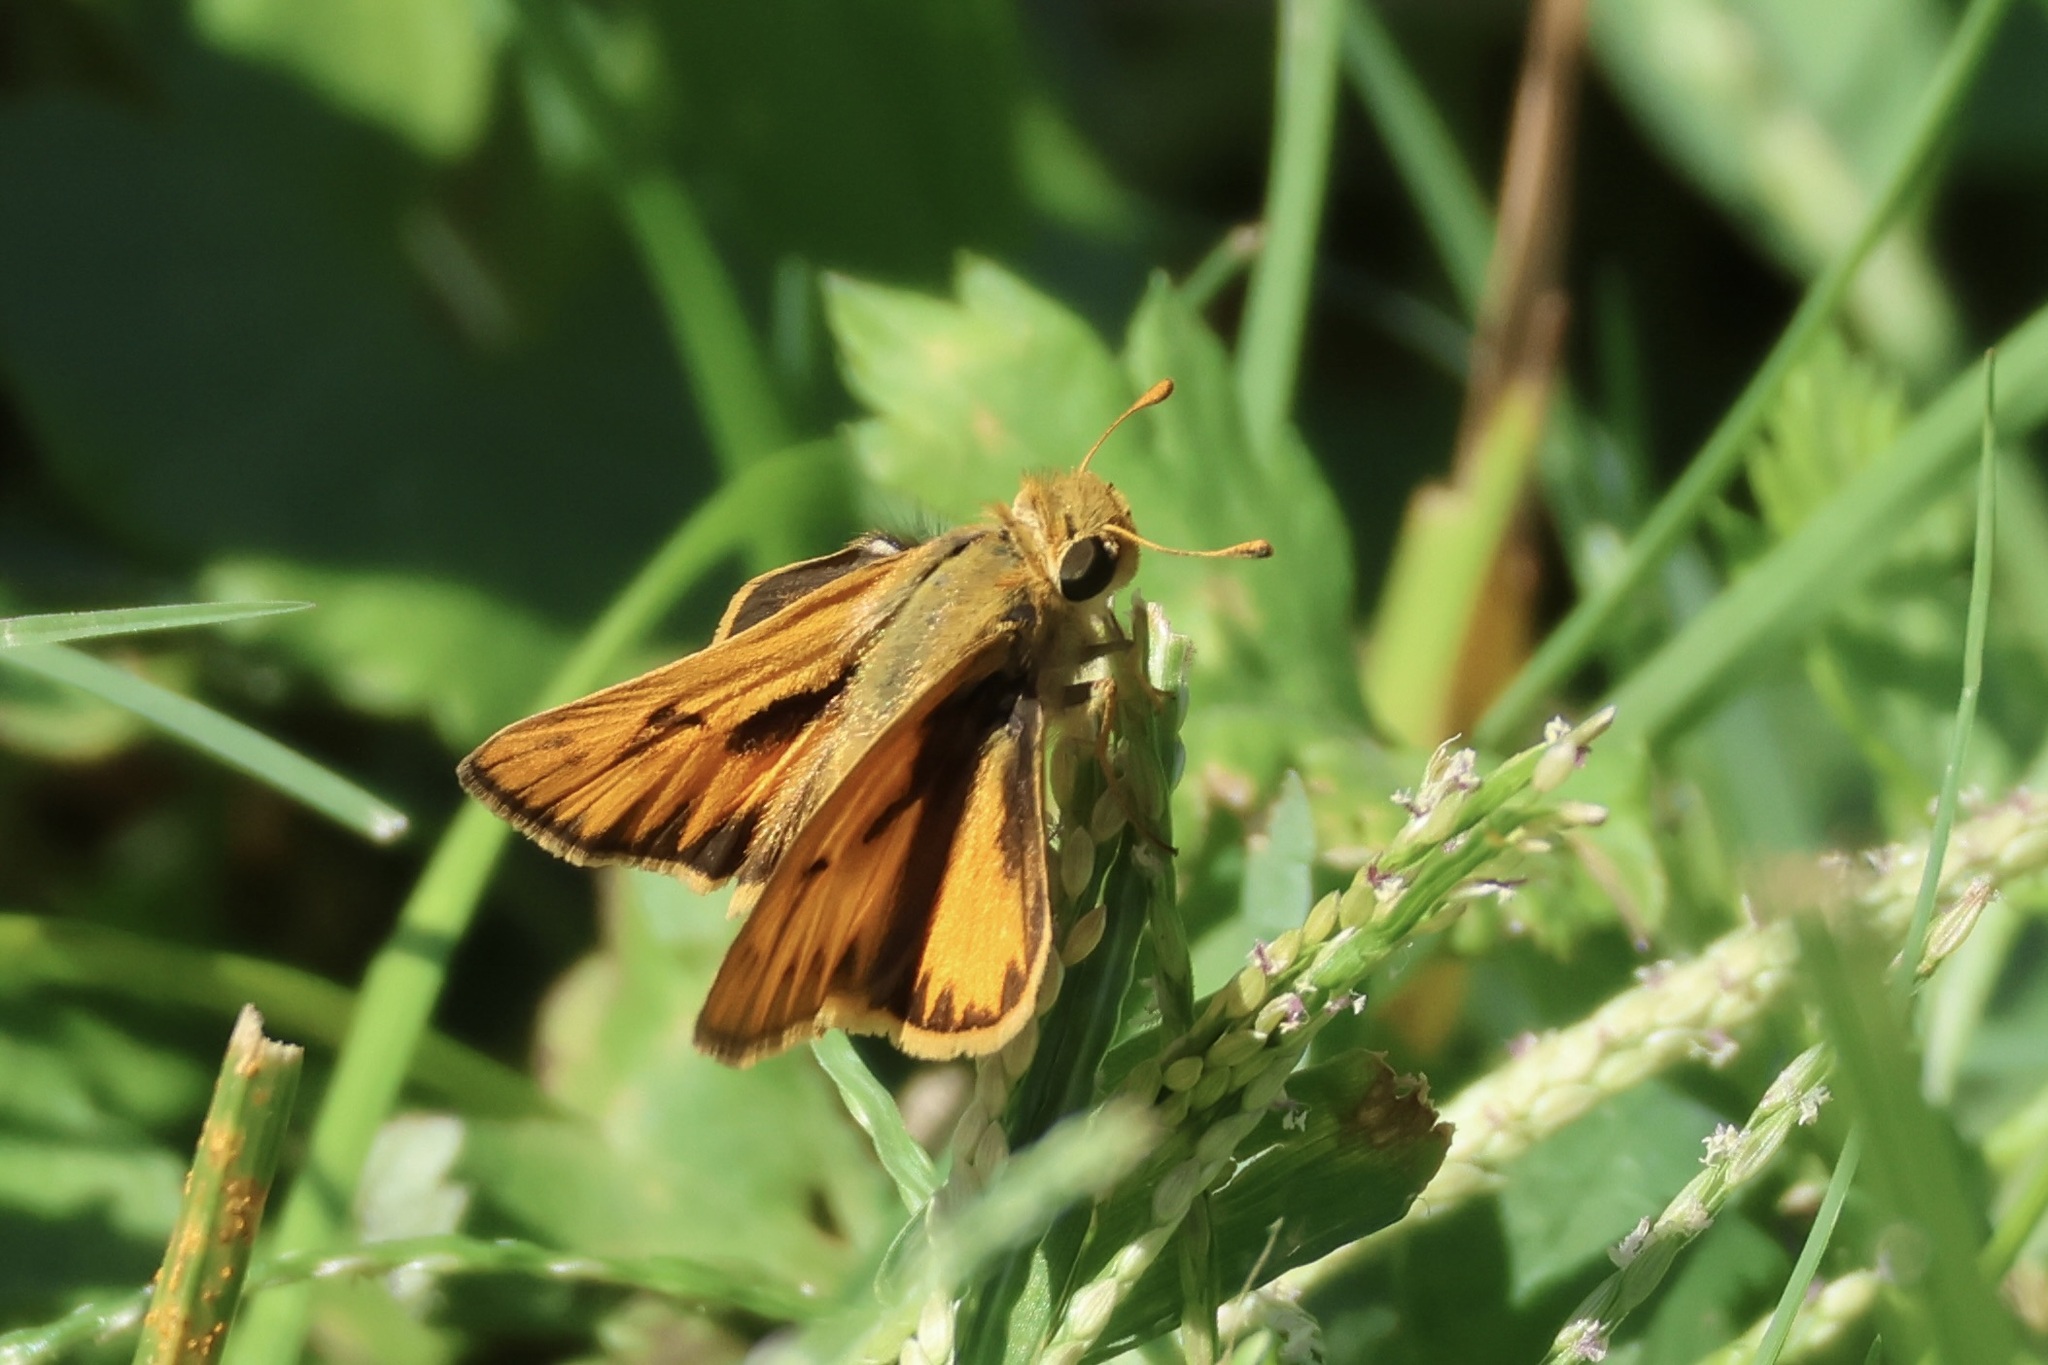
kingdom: Animalia
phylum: Arthropoda
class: Insecta
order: Lepidoptera
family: Hesperiidae
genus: Hylephila
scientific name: Hylephila phyleus
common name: Fiery skipper
